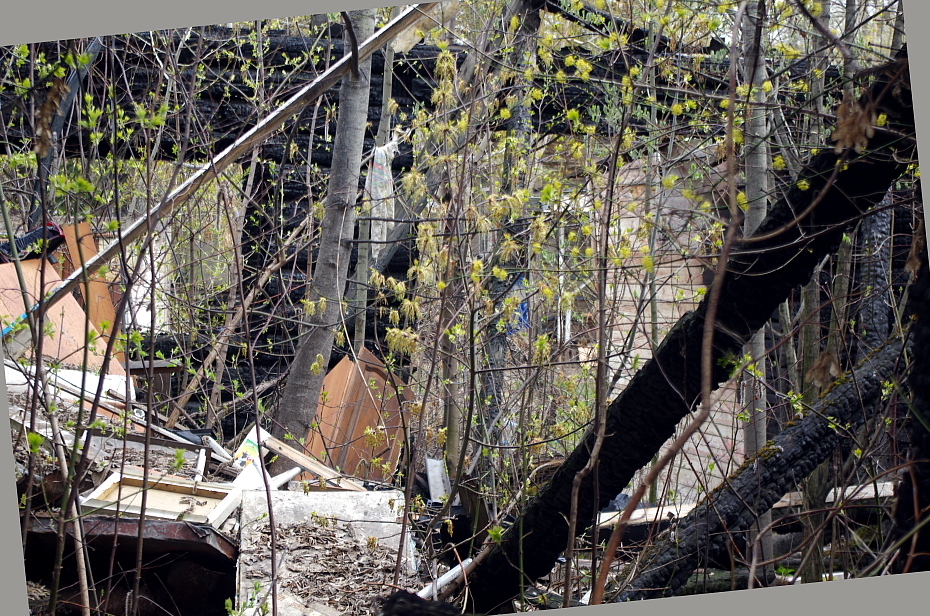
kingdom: Plantae
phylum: Tracheophyta
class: Magnoliopsida
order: Sapindales
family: Sapindaceae
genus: Acer
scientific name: Acer negundo
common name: Ashleaf maple
